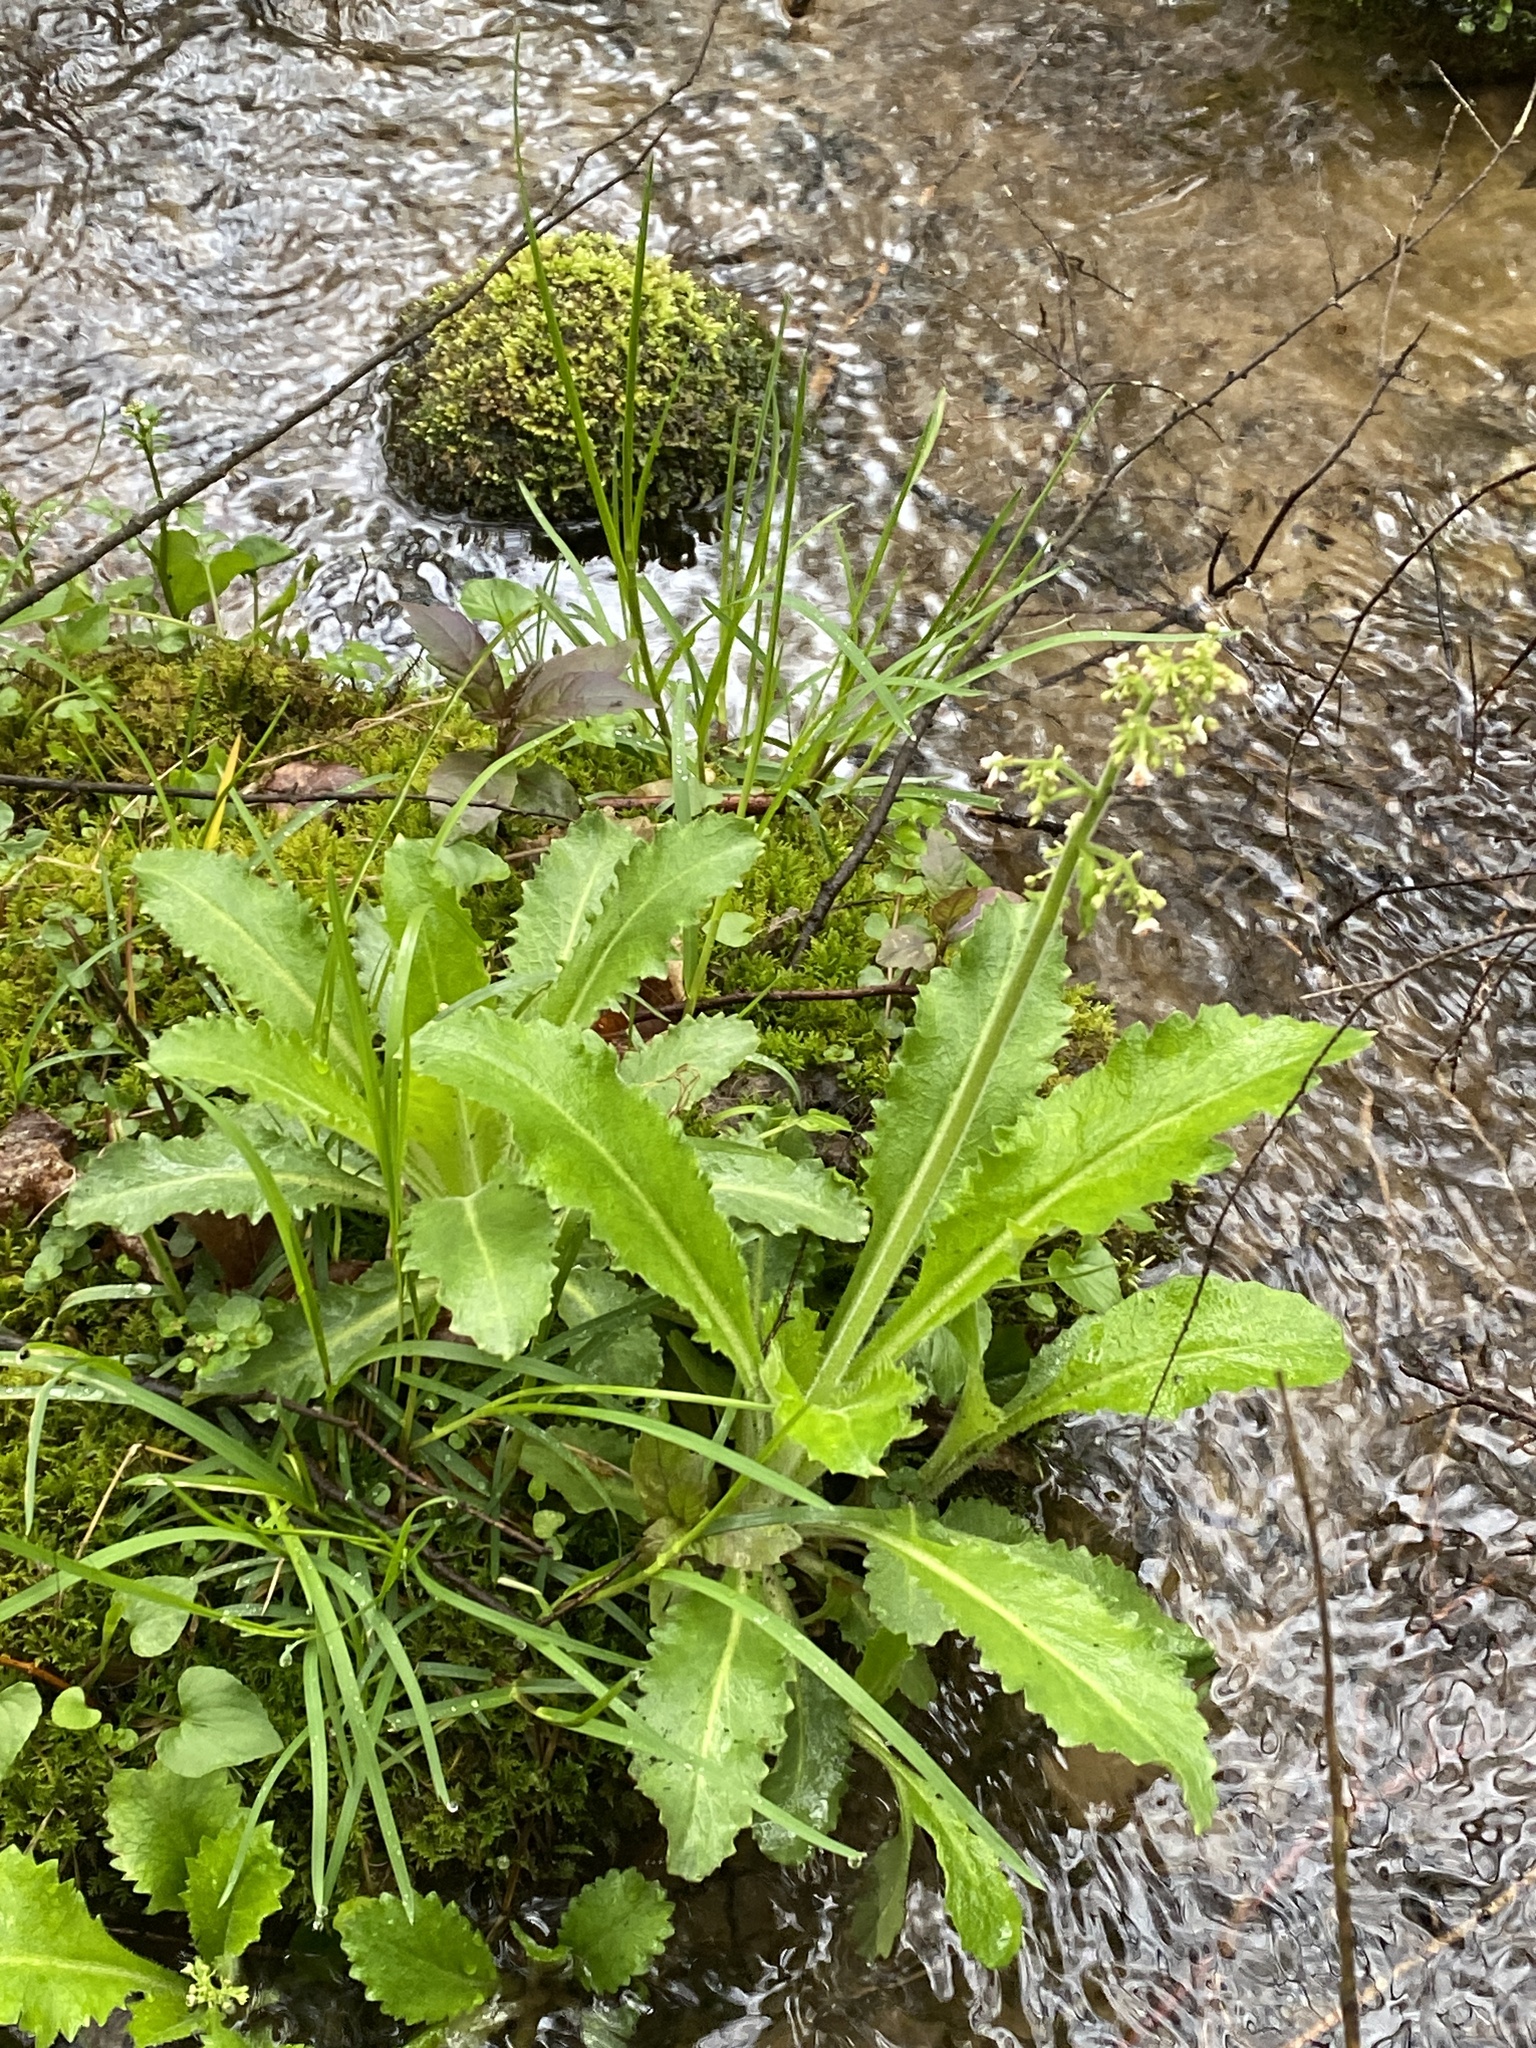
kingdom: Plantae
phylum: Tracheophyta
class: Magnoliopsida
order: Saxifragales
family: Saxifragaceae
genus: Micranthes
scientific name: Micranthes micranthidifolia
